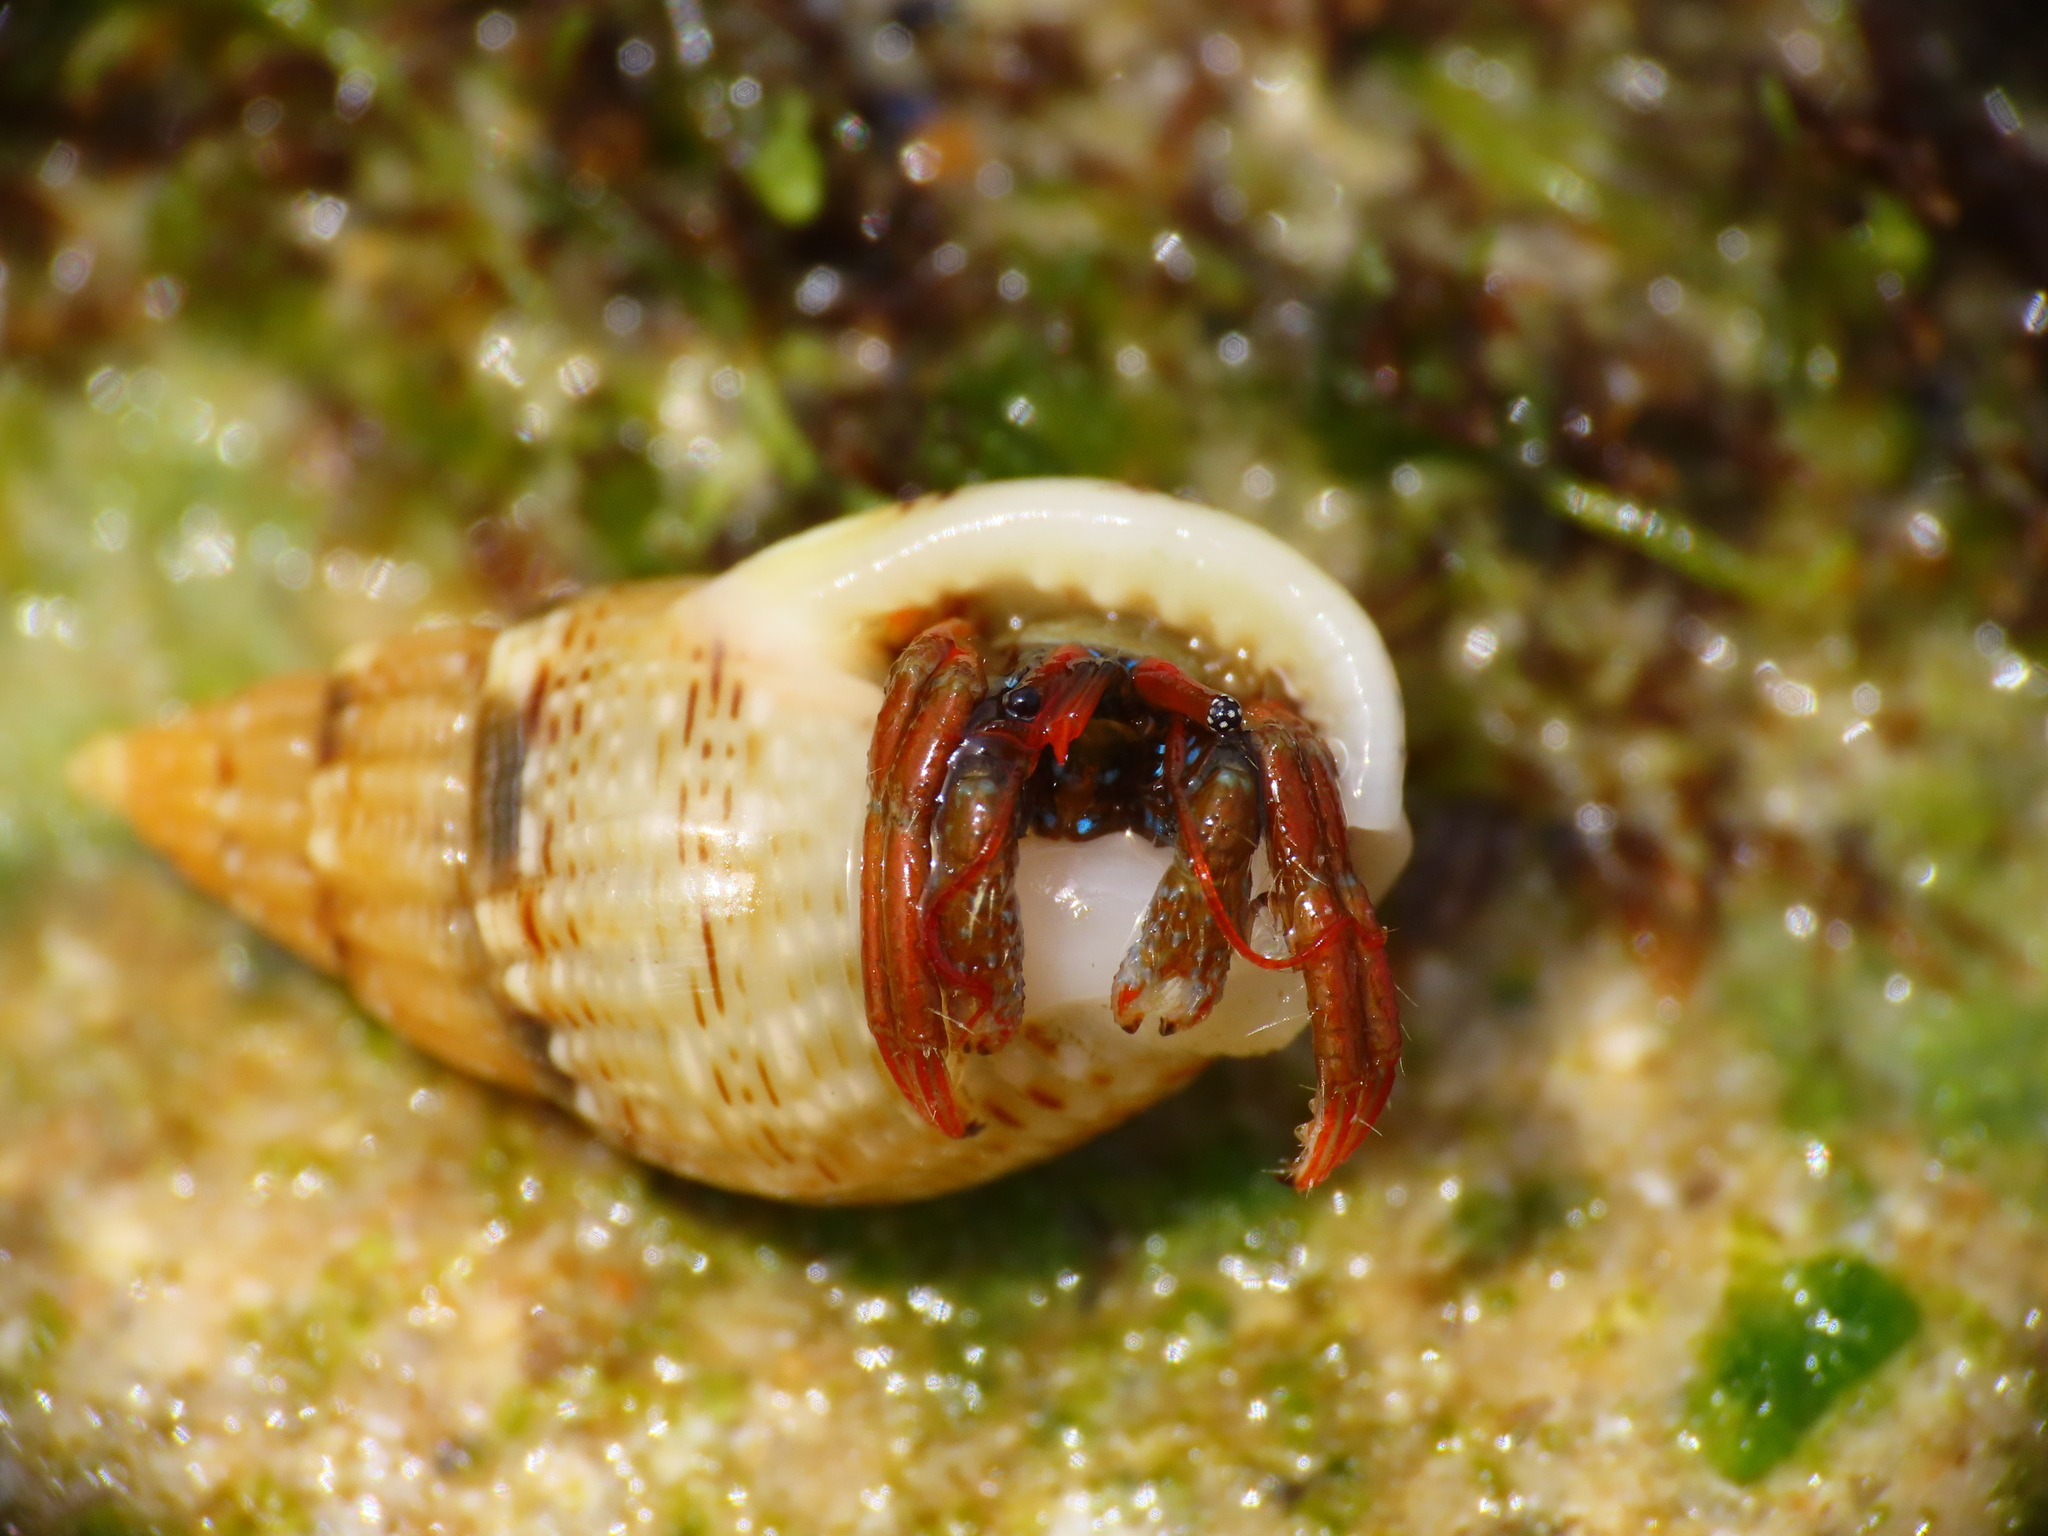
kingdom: Animalia
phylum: Arthropoda
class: Malacostraca
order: Decapoda
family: Diogenidae
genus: Clibanarius
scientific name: Clibanarius erythropus
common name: Hermit crab
